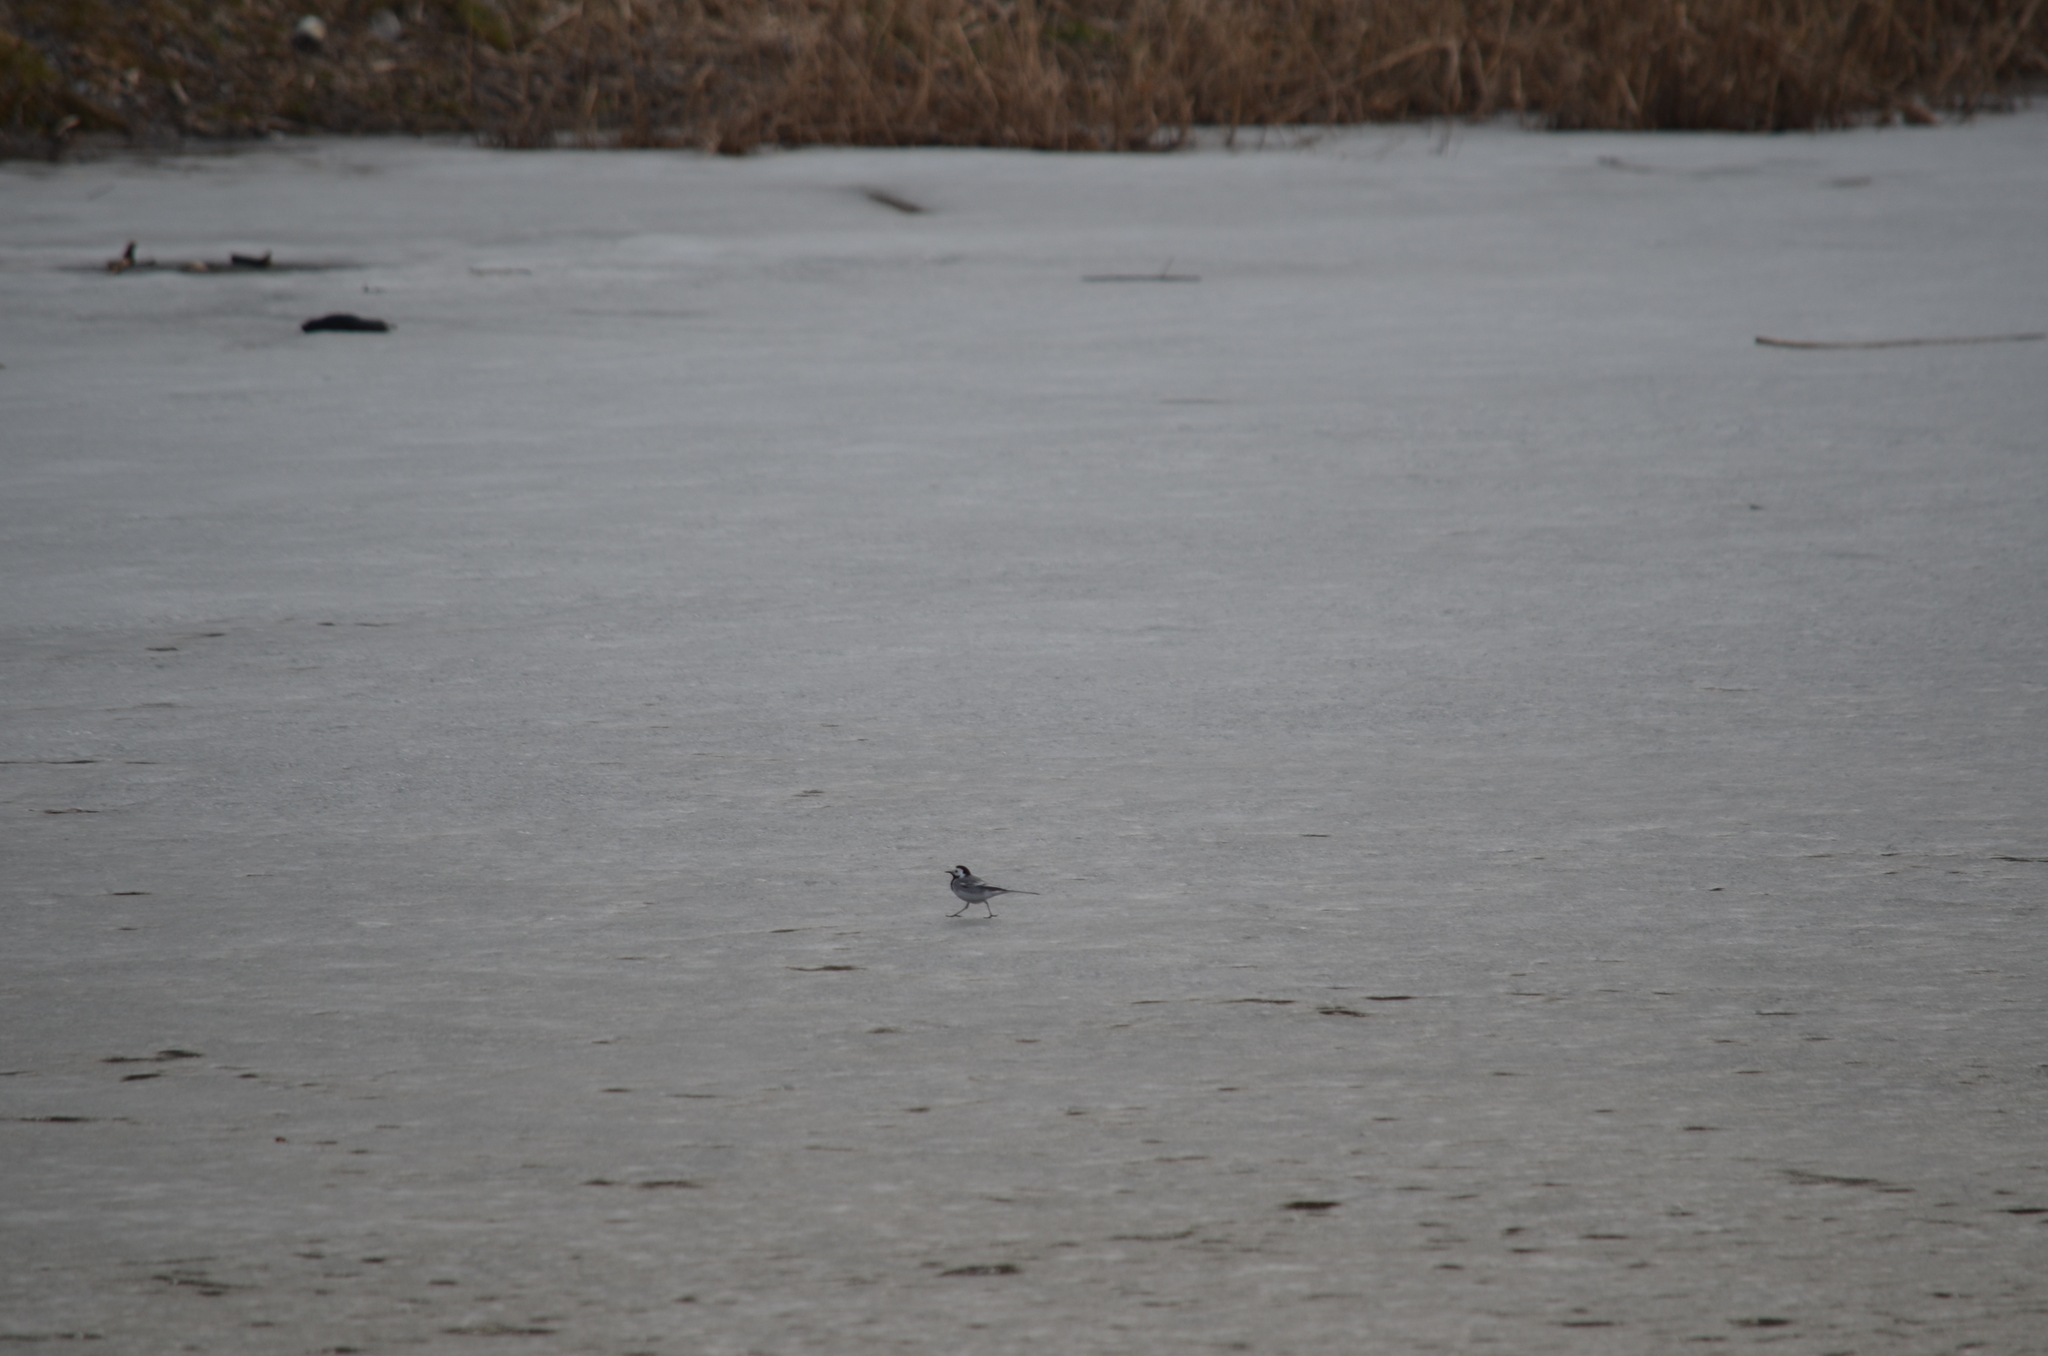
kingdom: Animalia
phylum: Chordata
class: Aves
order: Passeriformes
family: Motacillidae
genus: Motacilla
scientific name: Motacilla alba
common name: White wagtail
